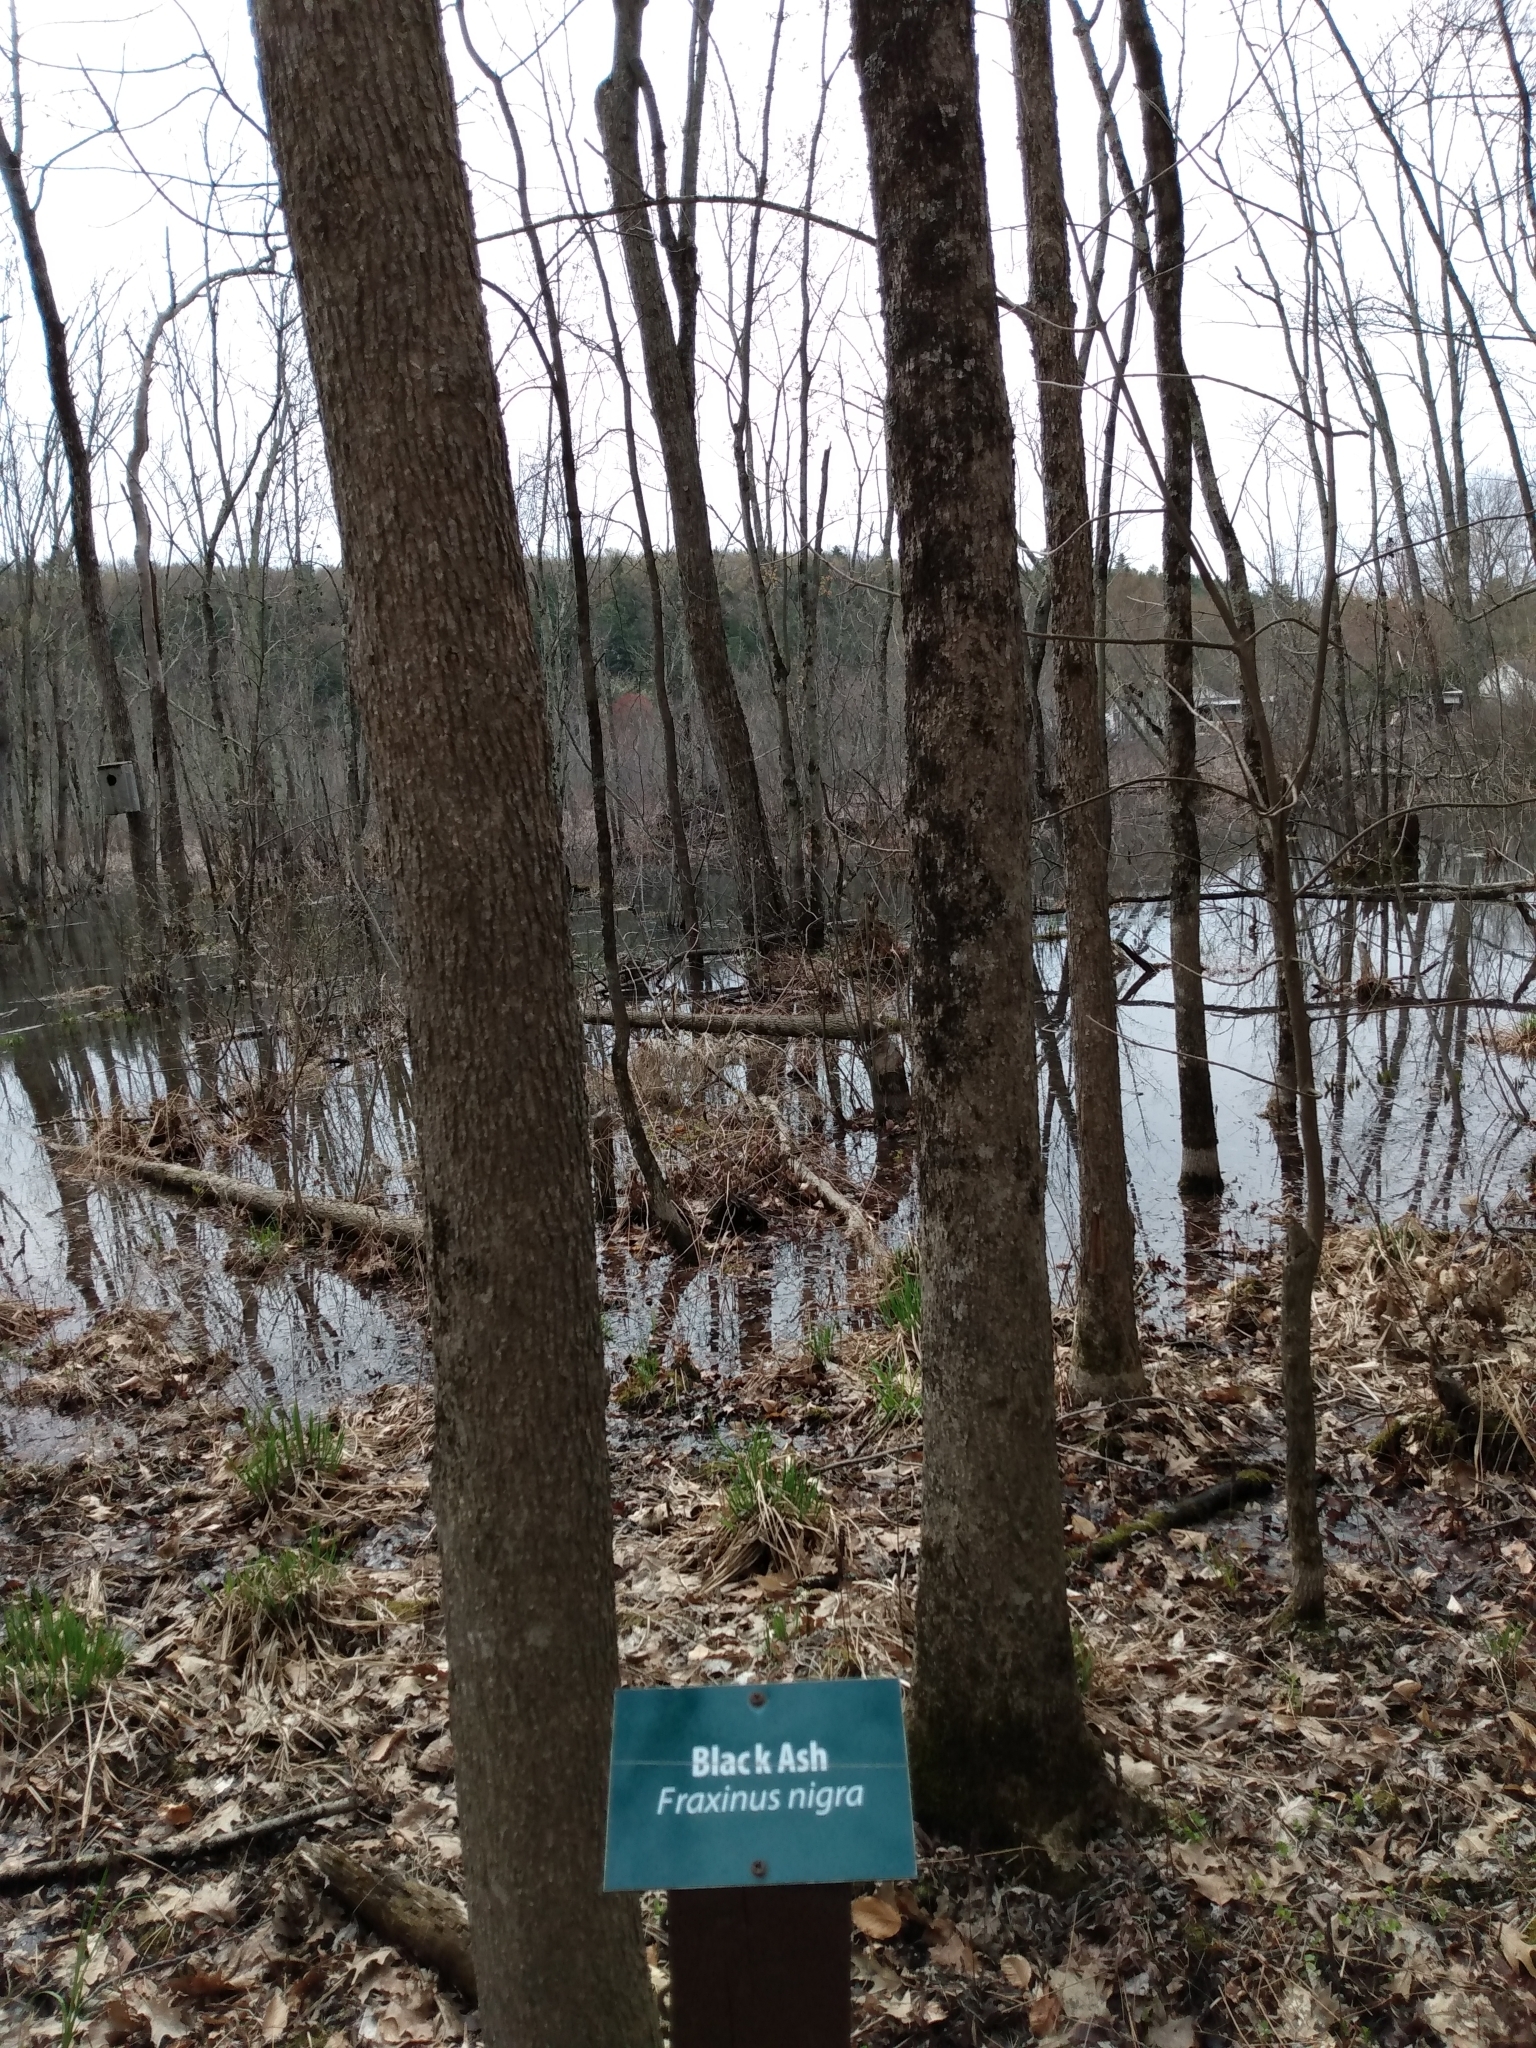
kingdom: Plantae
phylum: Tracheophyta
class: Magnoliopsida
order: Lamiales
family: Oleaceae
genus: Fraxinus
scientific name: Fraxinus nigra
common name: Black ash
